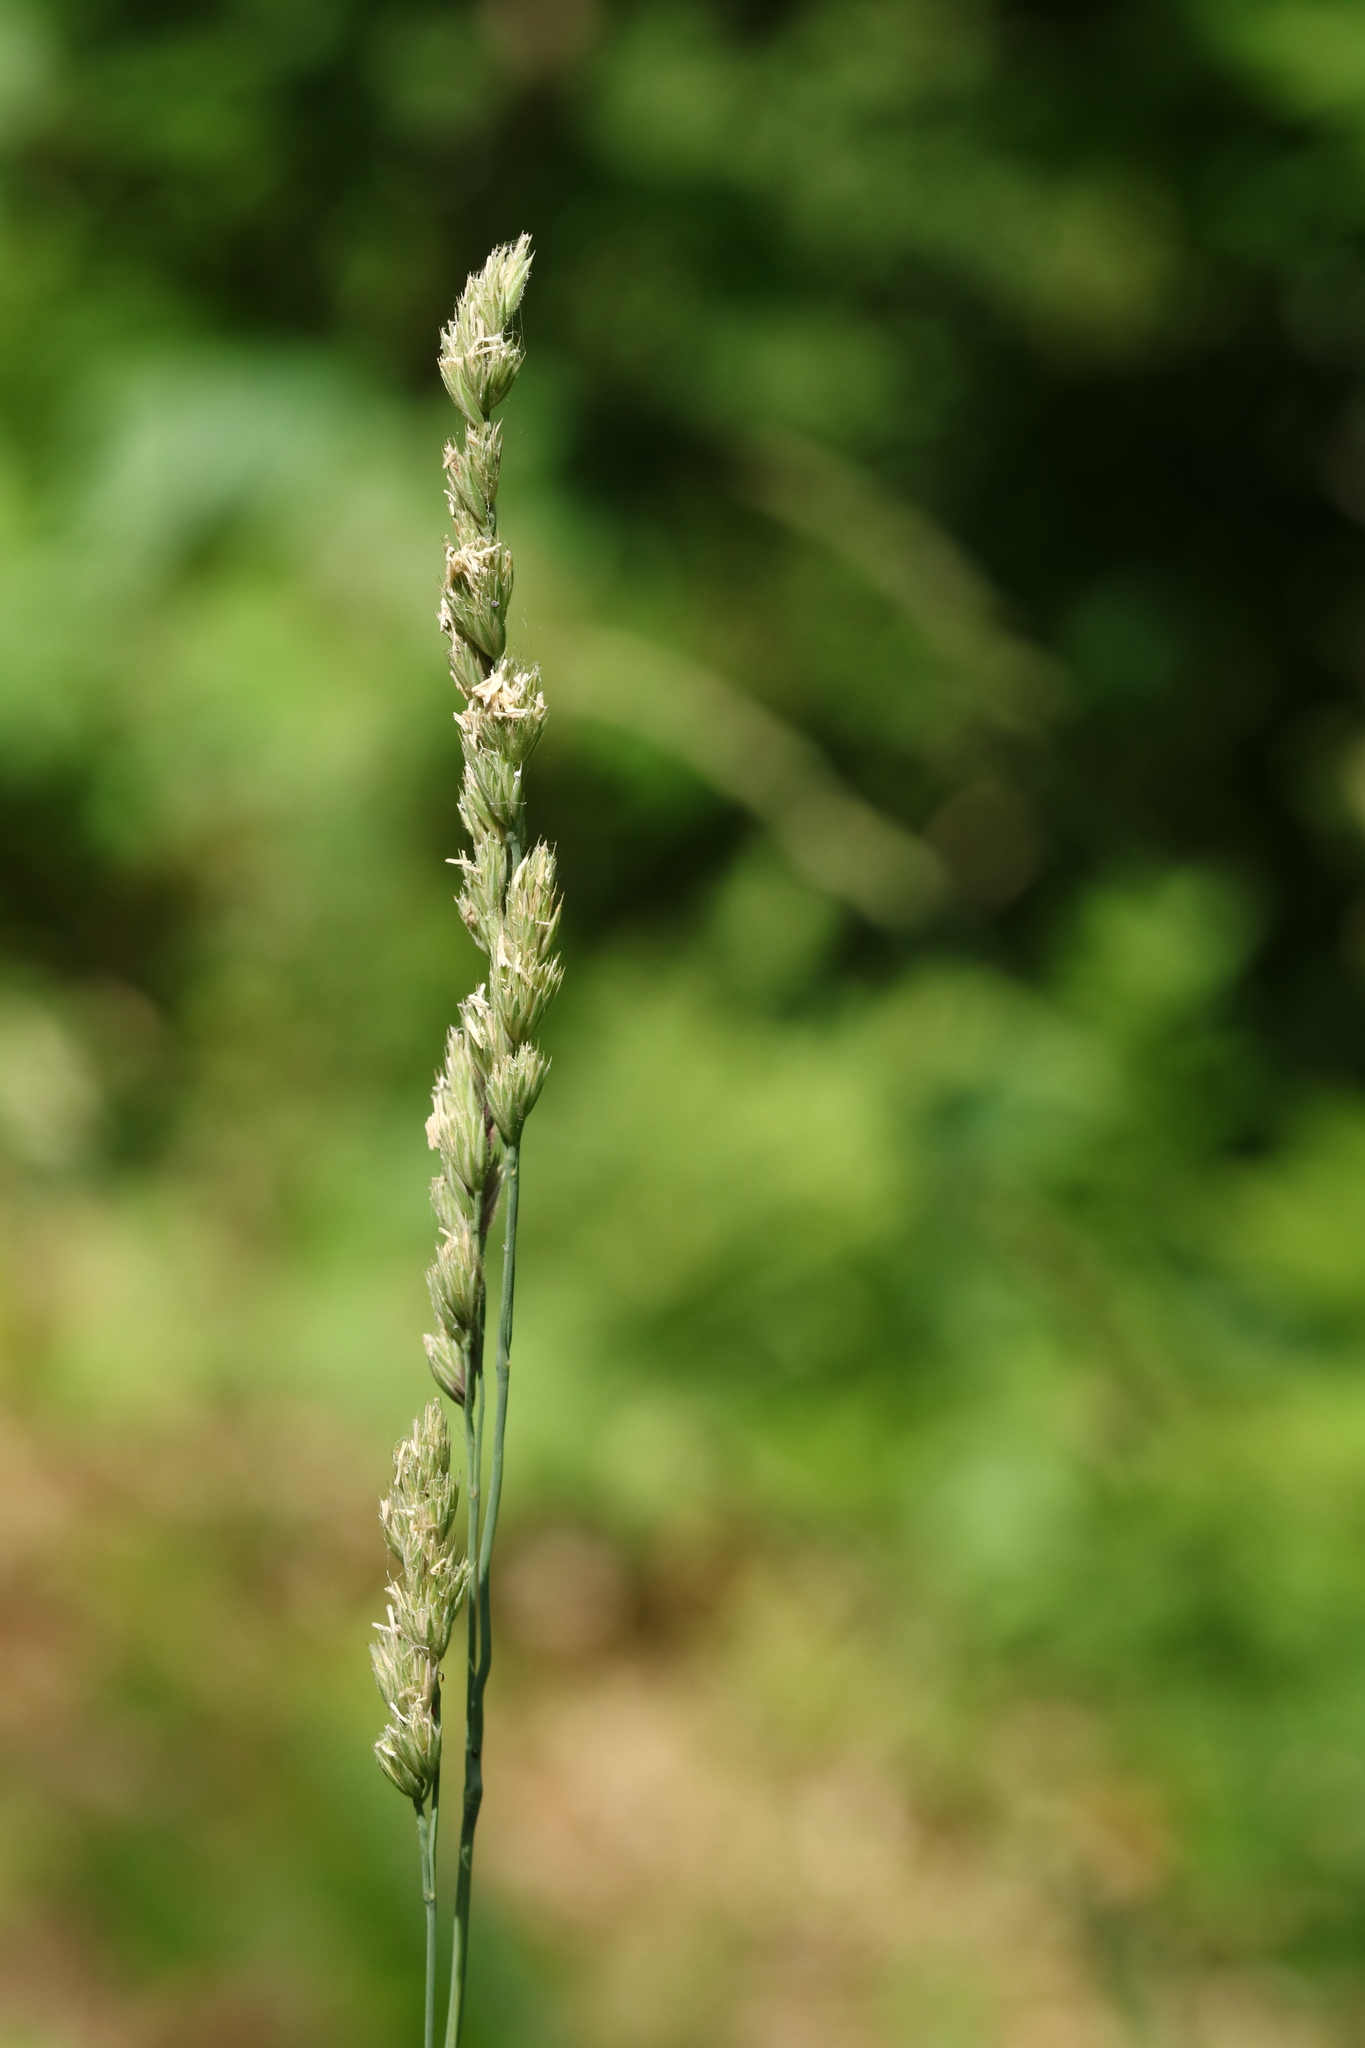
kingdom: Plantae
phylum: Tracheophyta
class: Liliopsida
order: Poales
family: Poaceae
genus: Dactylis
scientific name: Dactylis glomerata
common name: Orchardgrass
